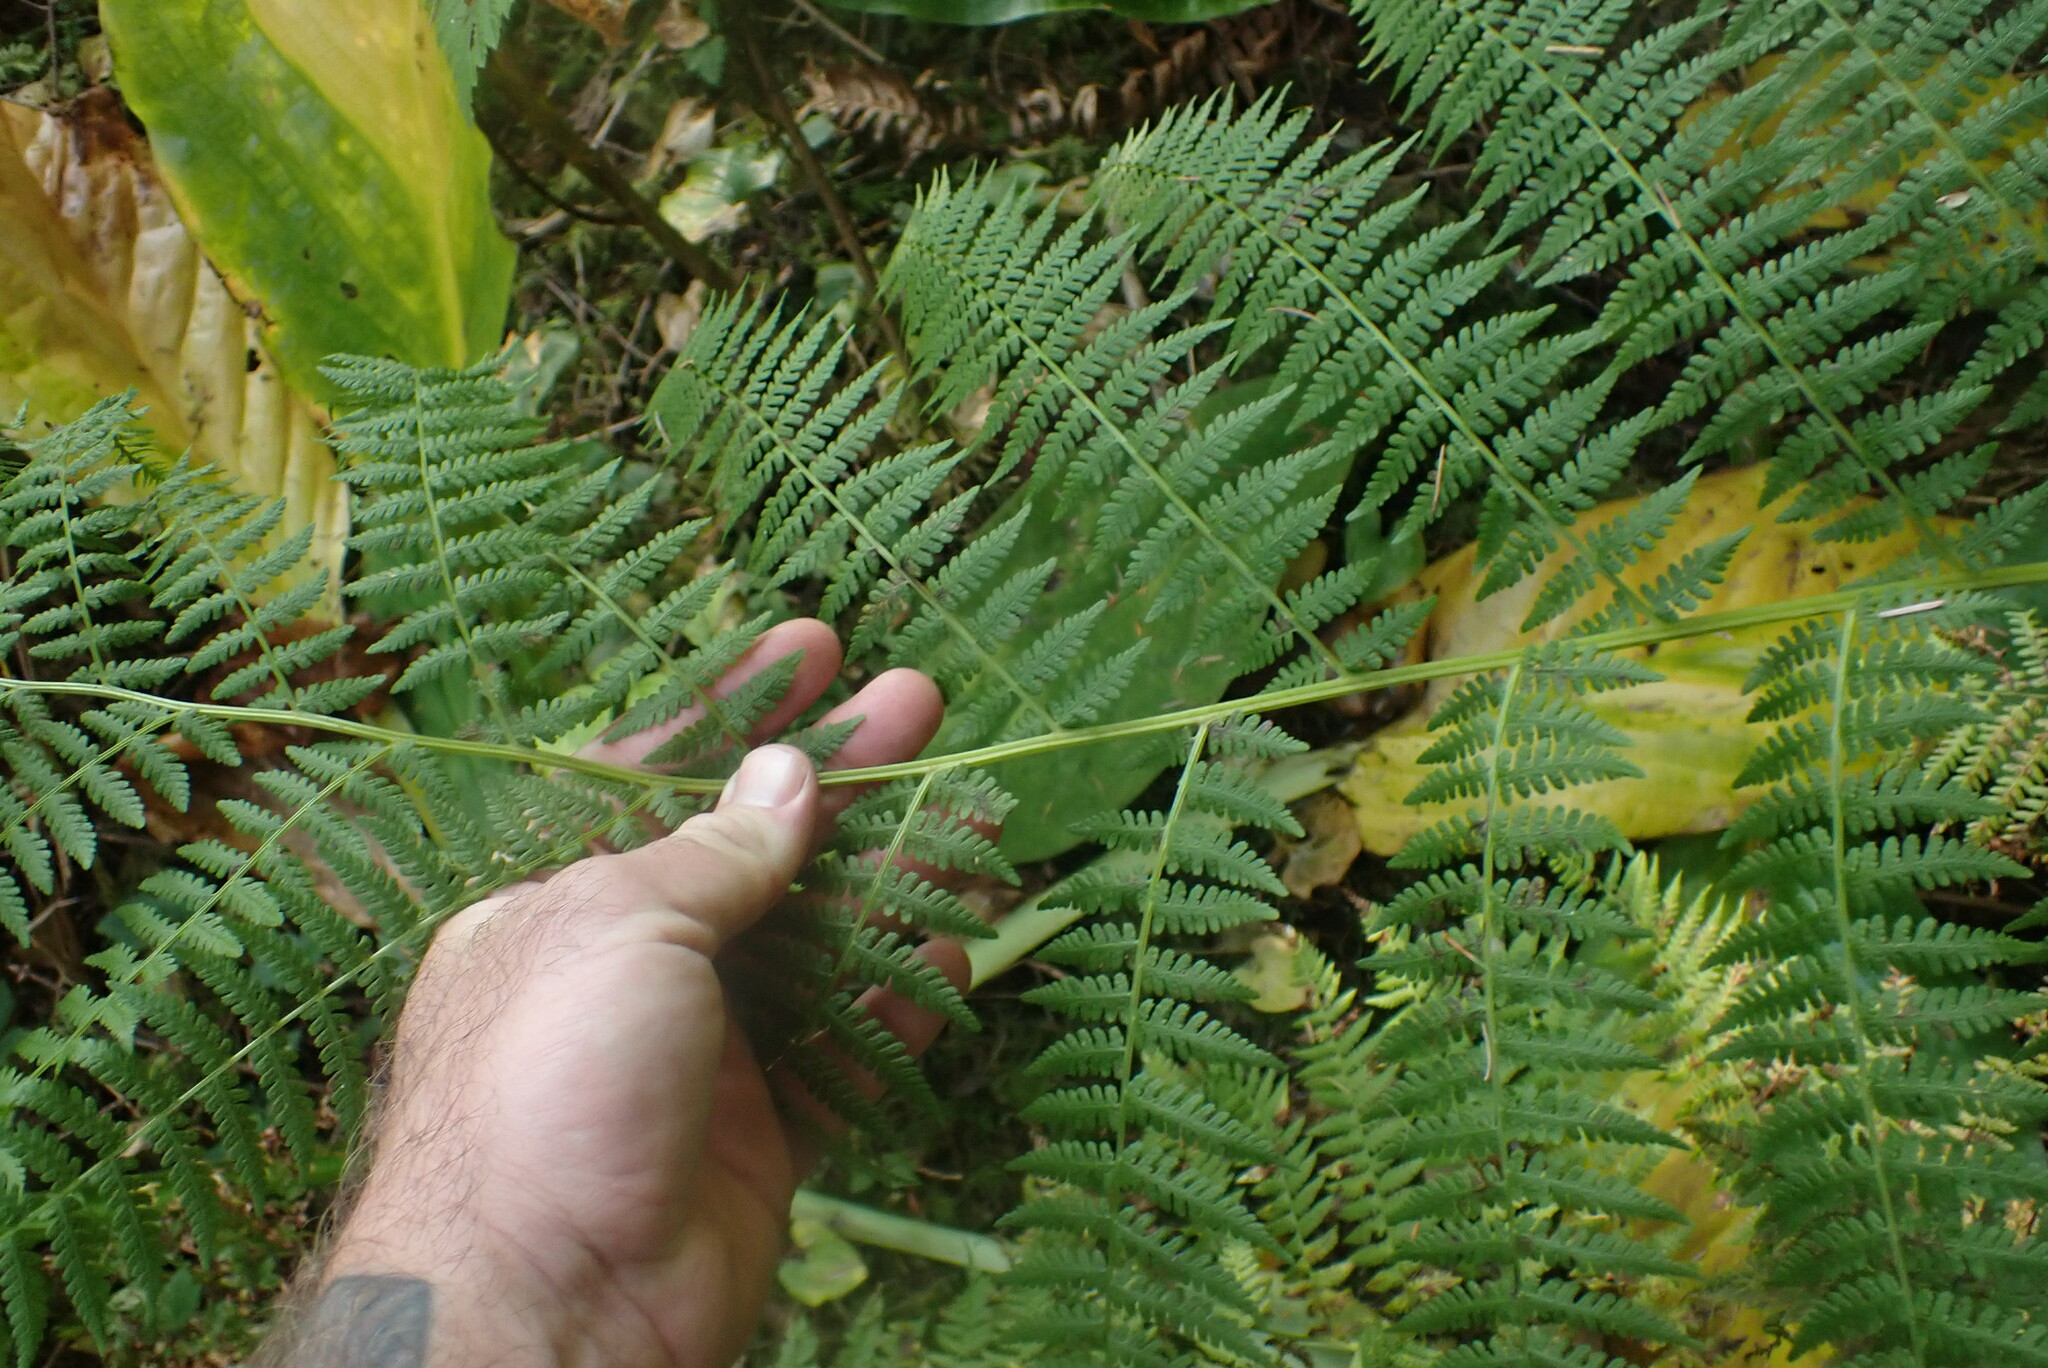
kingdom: Plantae
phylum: Tracheophyta
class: Polypodiopsida
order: Polypodiales
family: Athyriaceae
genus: Athyrium
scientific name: Athyrium filix-femina
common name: Lady fern
